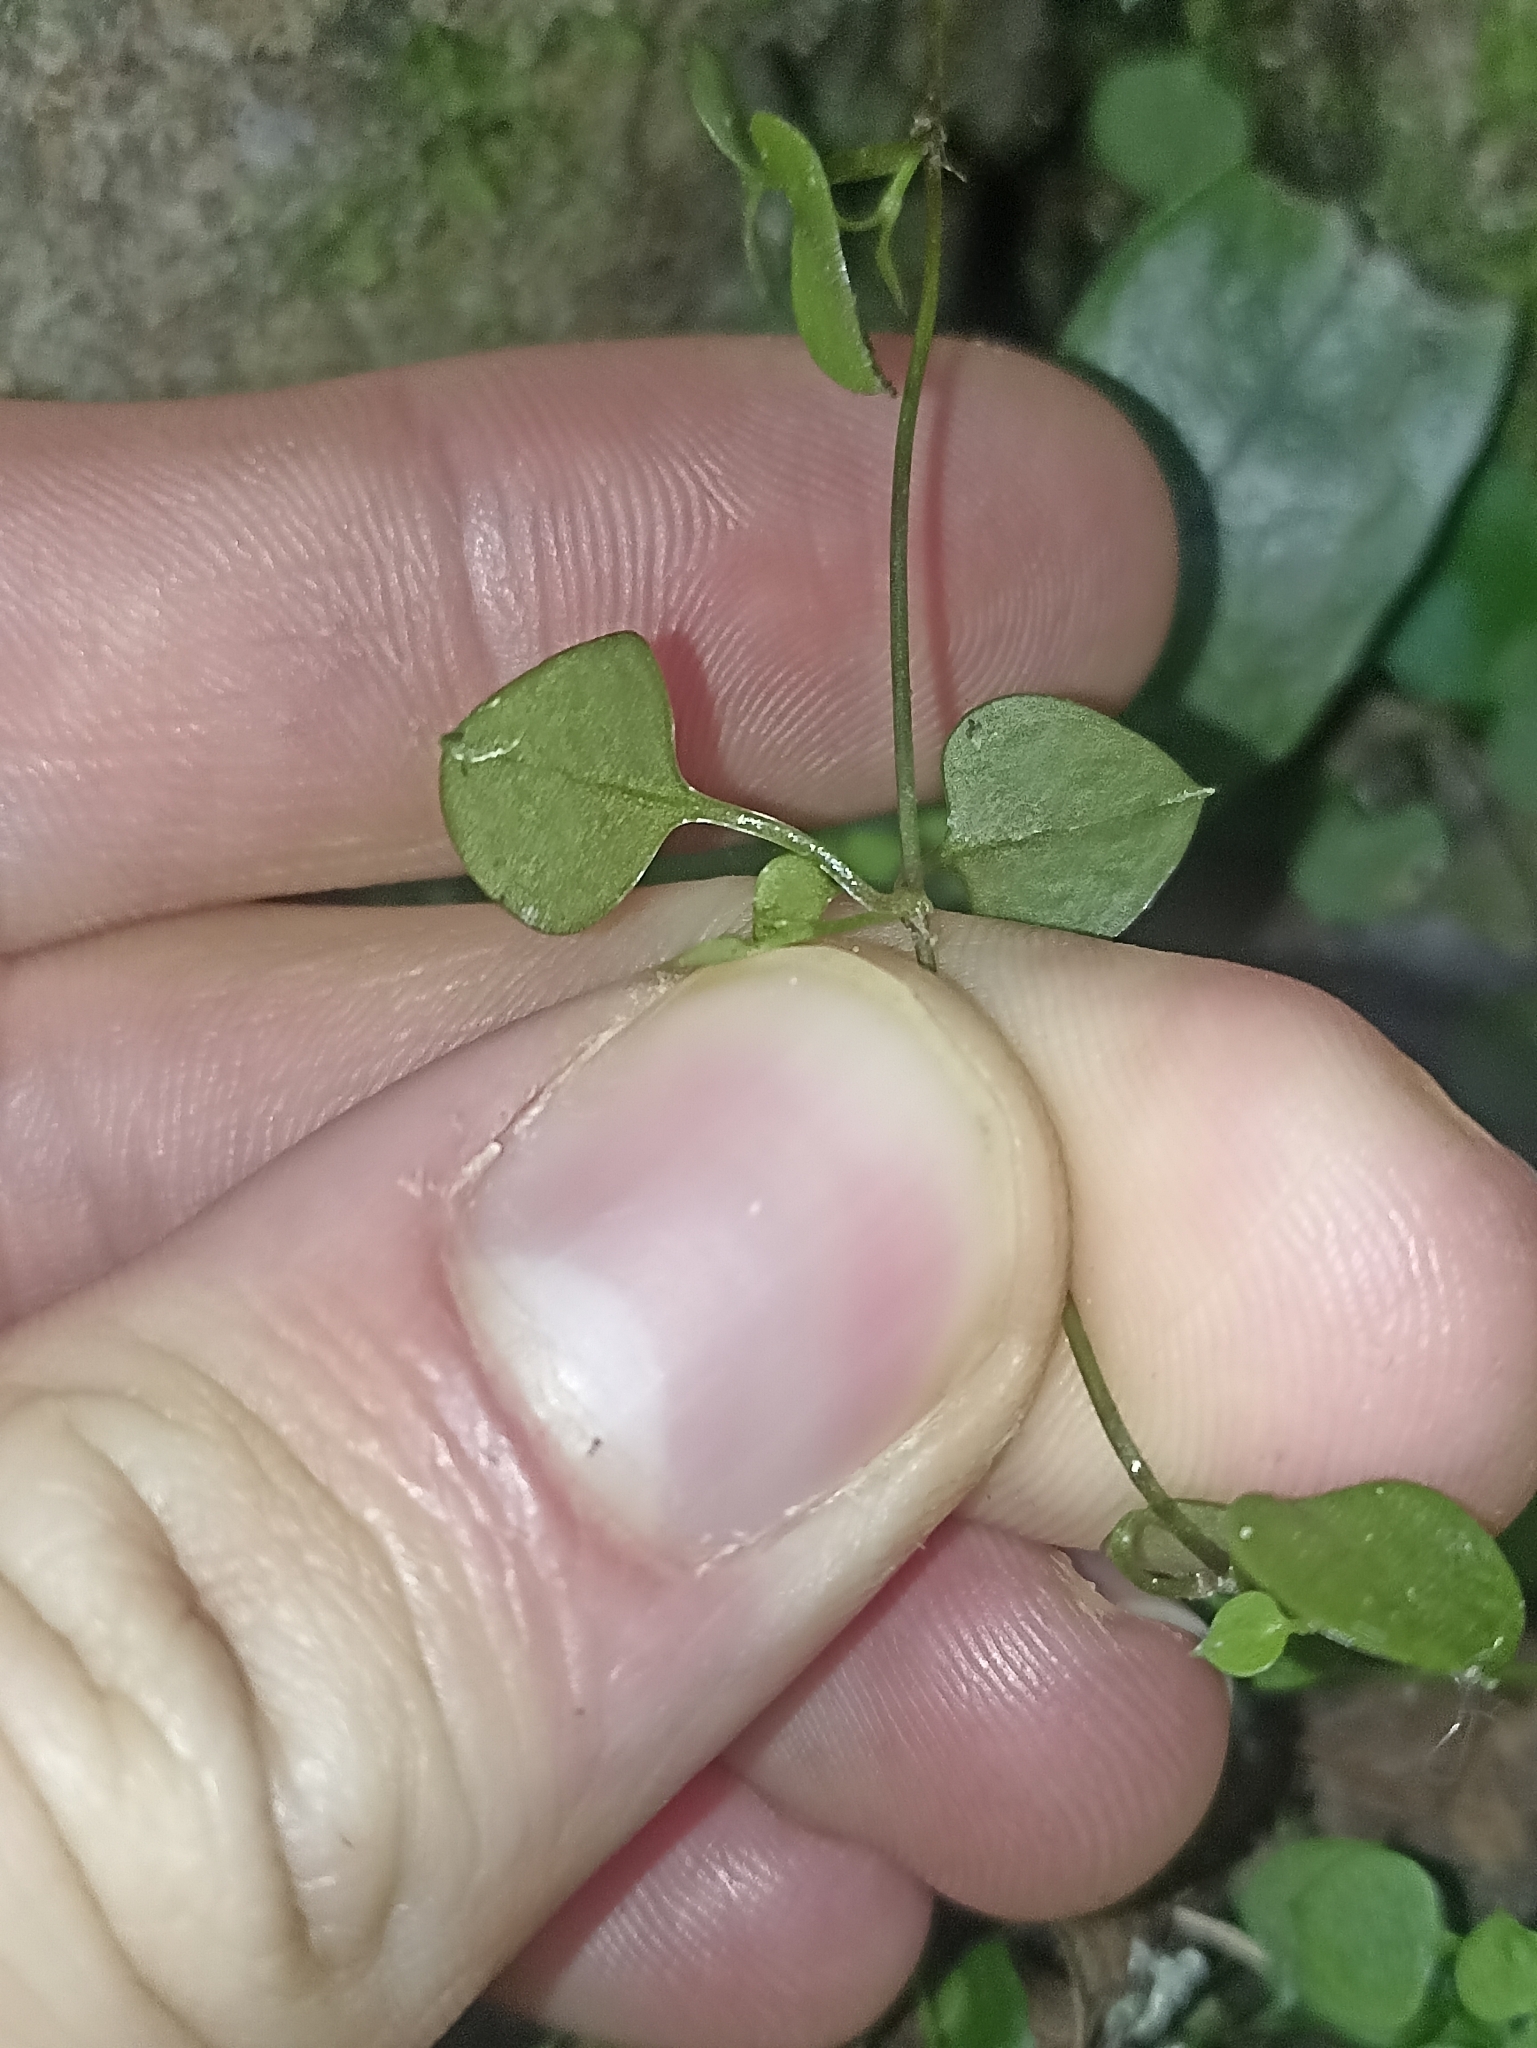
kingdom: Plantae
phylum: Tracheophyta
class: Magnoliopsida
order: Caryophyllales
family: Caryophyllaceae
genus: Stellaria
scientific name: Stellaria parviflora
